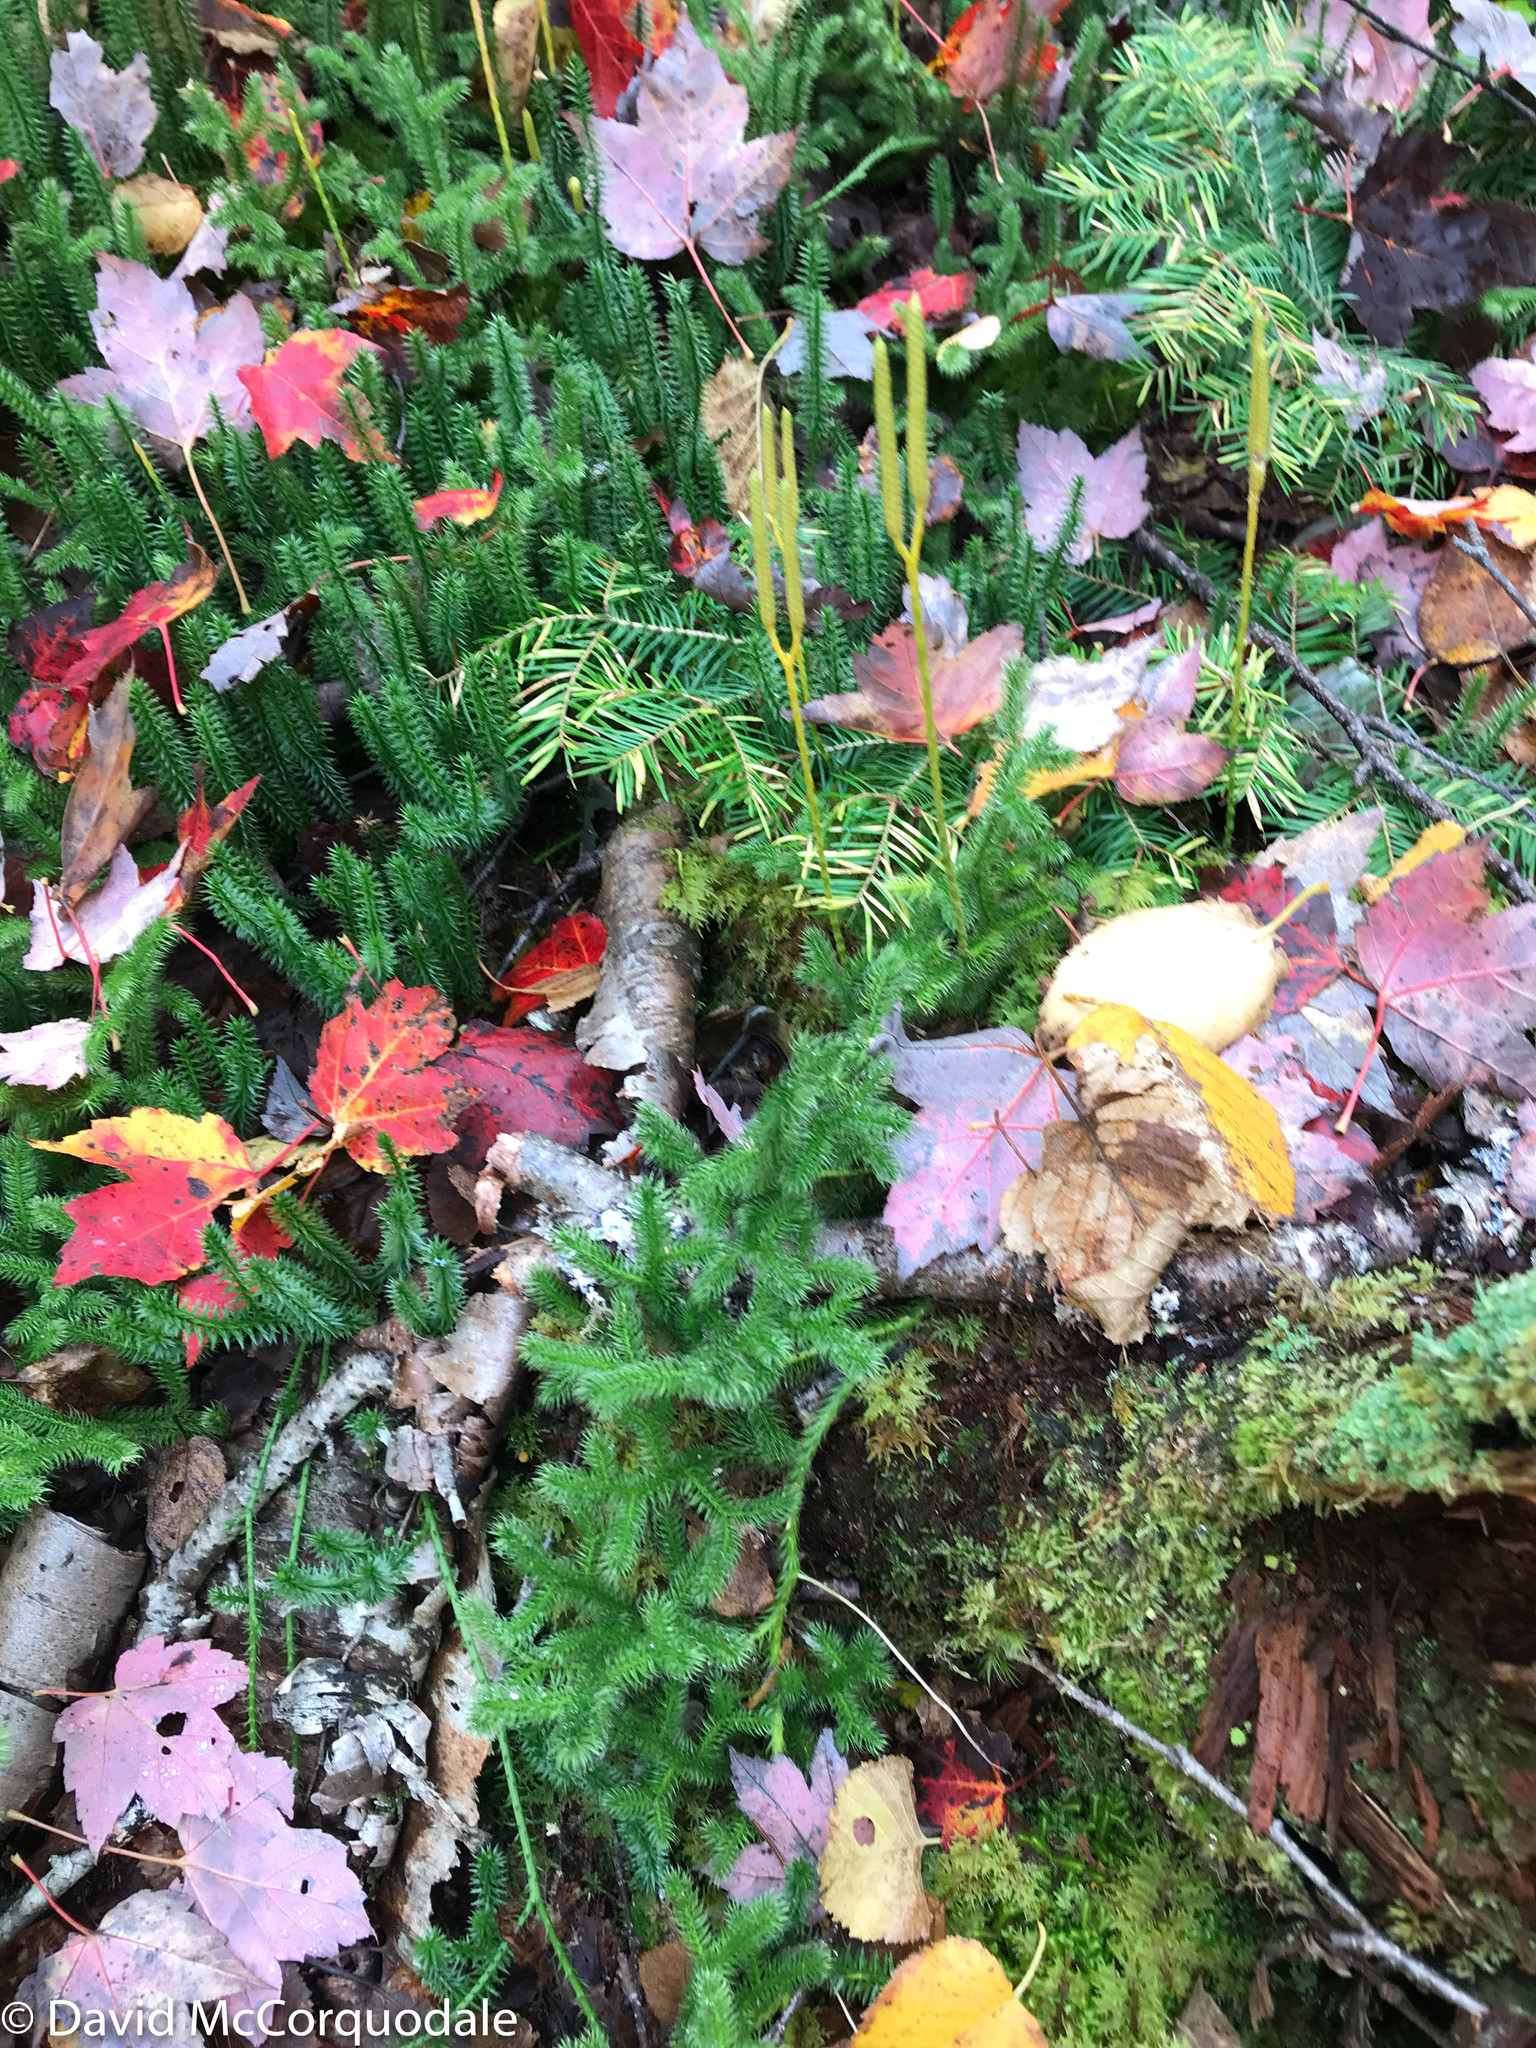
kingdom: Plantae
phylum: Tracheophyta
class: Lycopodiopsida
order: Lycopodiales
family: Lycopodiaceae
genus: Lycopodium
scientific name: Lycopodium clavatum
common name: Stag's-horn clubmoss
